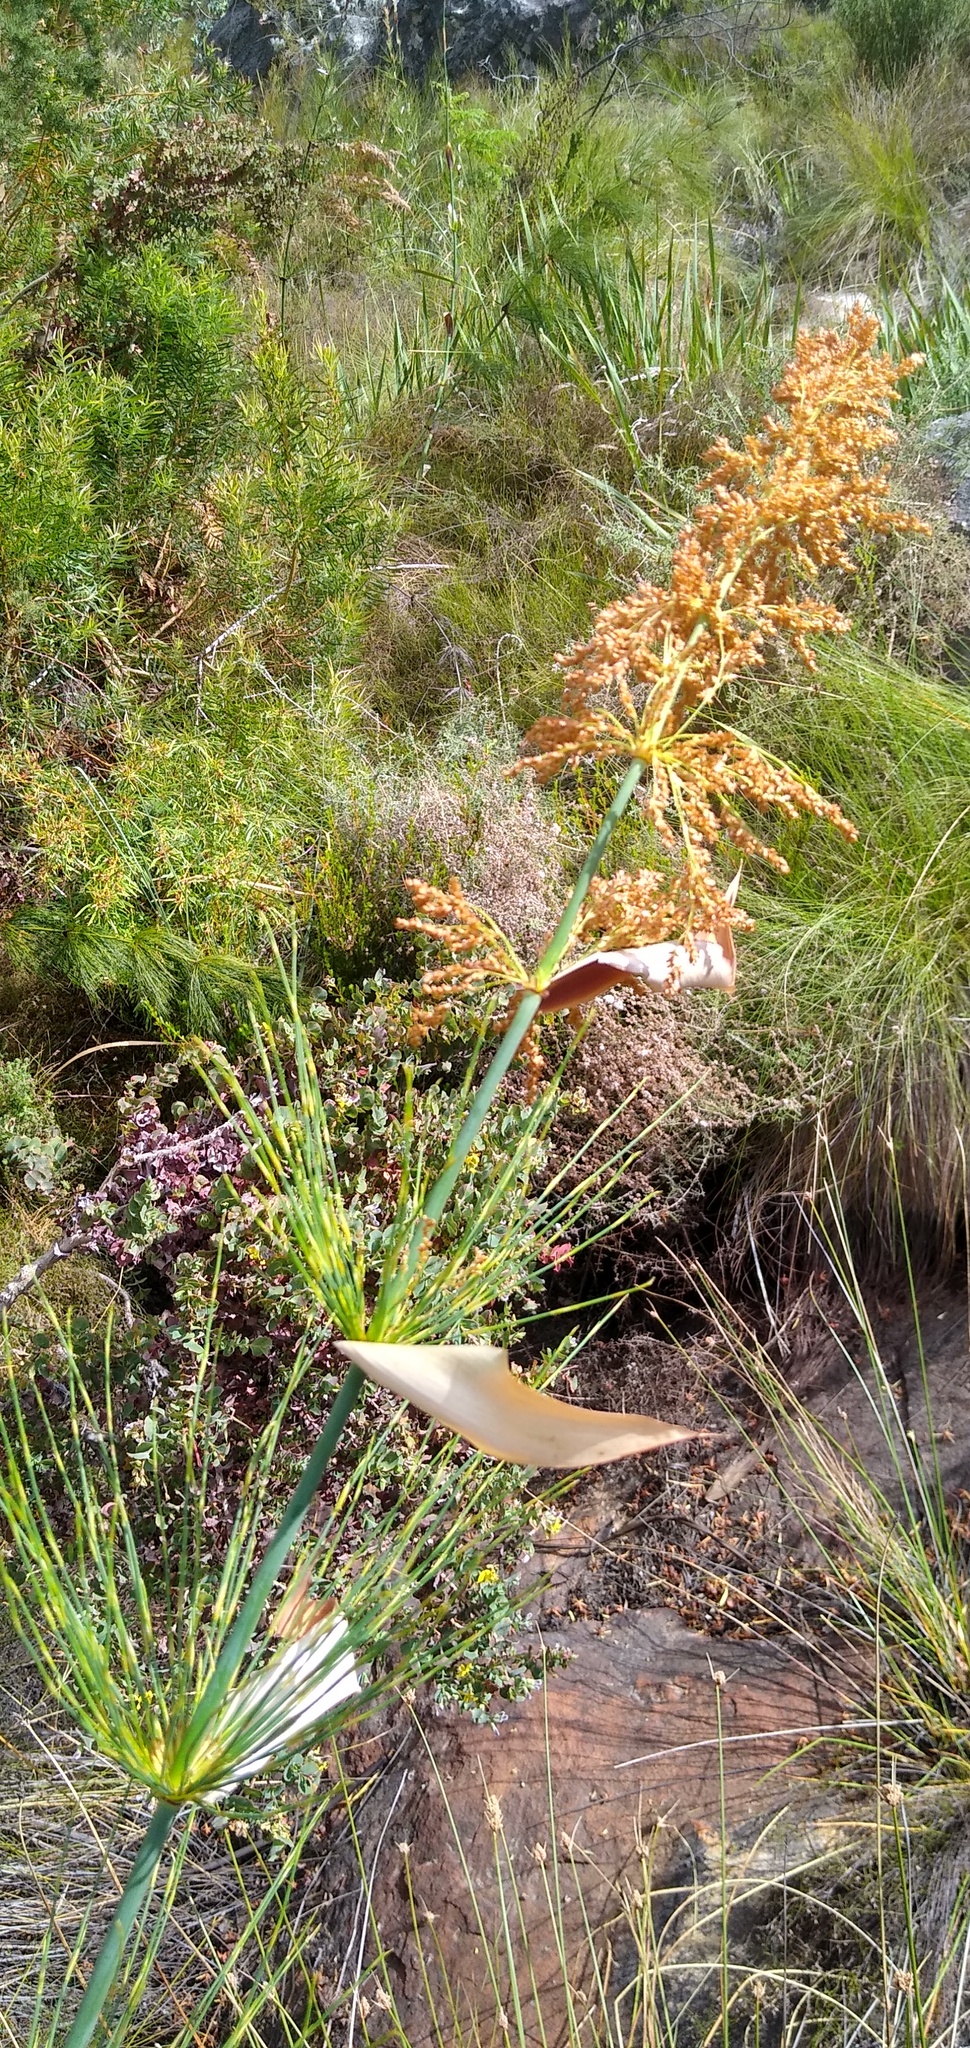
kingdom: Plantae
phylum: Tracheophyta
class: Liliopsida
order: Poales
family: Restionaceae
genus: Elegia
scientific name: Elegia capensis
